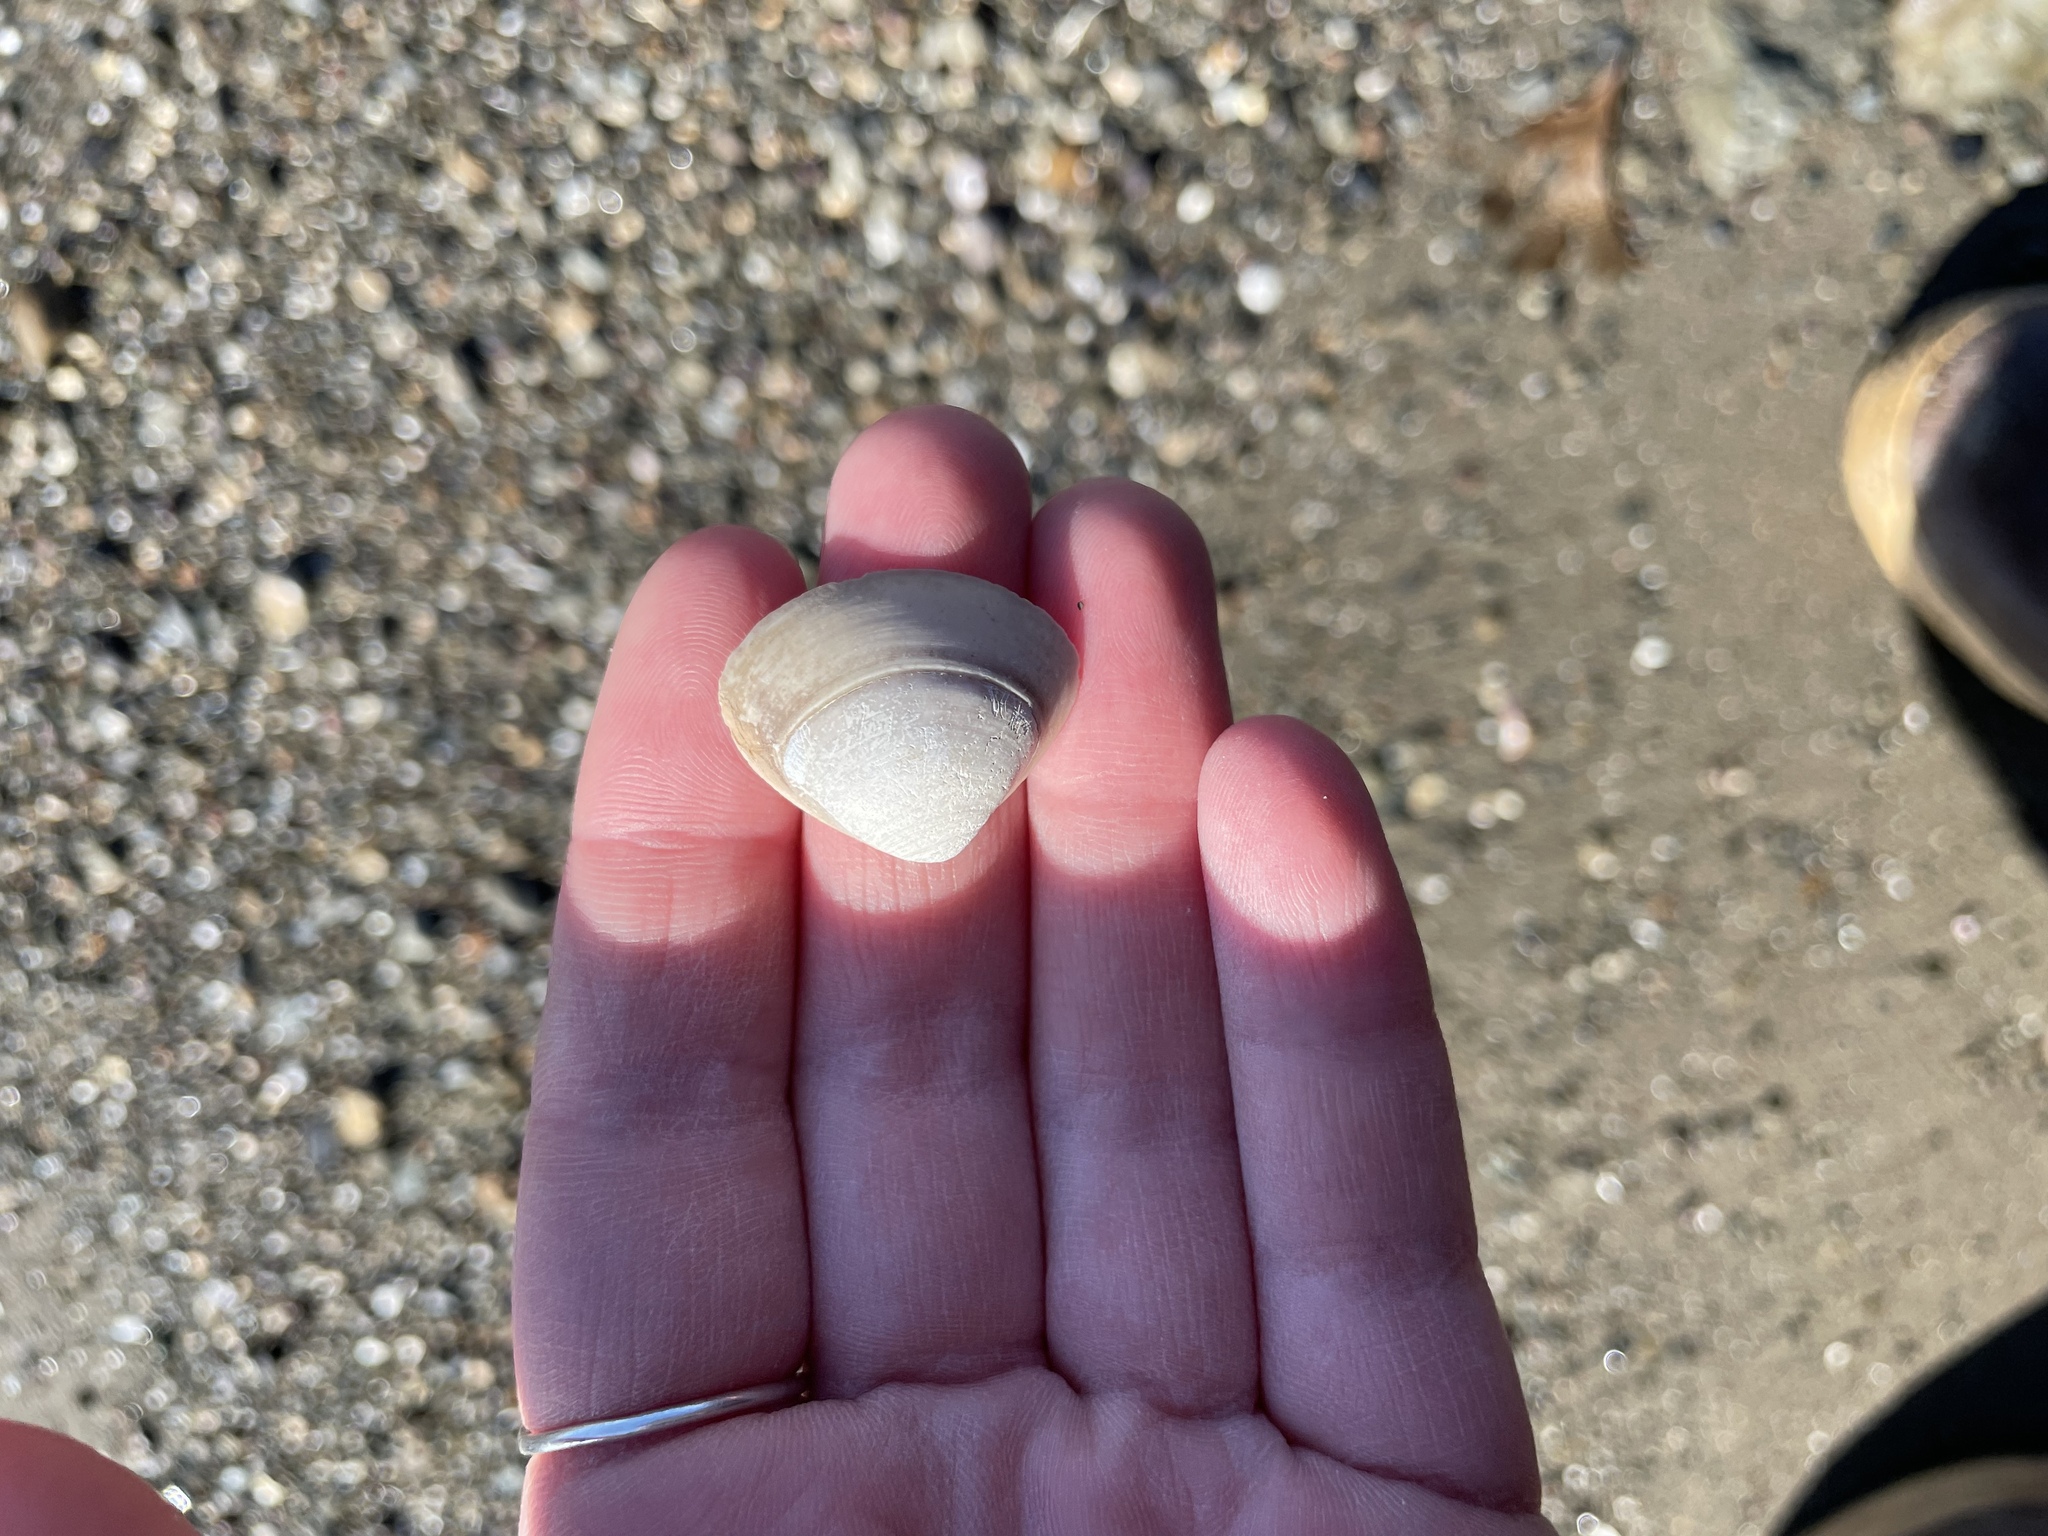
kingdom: Animalia
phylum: Mollusca
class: Bivalvia
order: Venerida
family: Mactridae
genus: Spisula
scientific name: Spisula solidissima
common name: Atlantic surf clam
